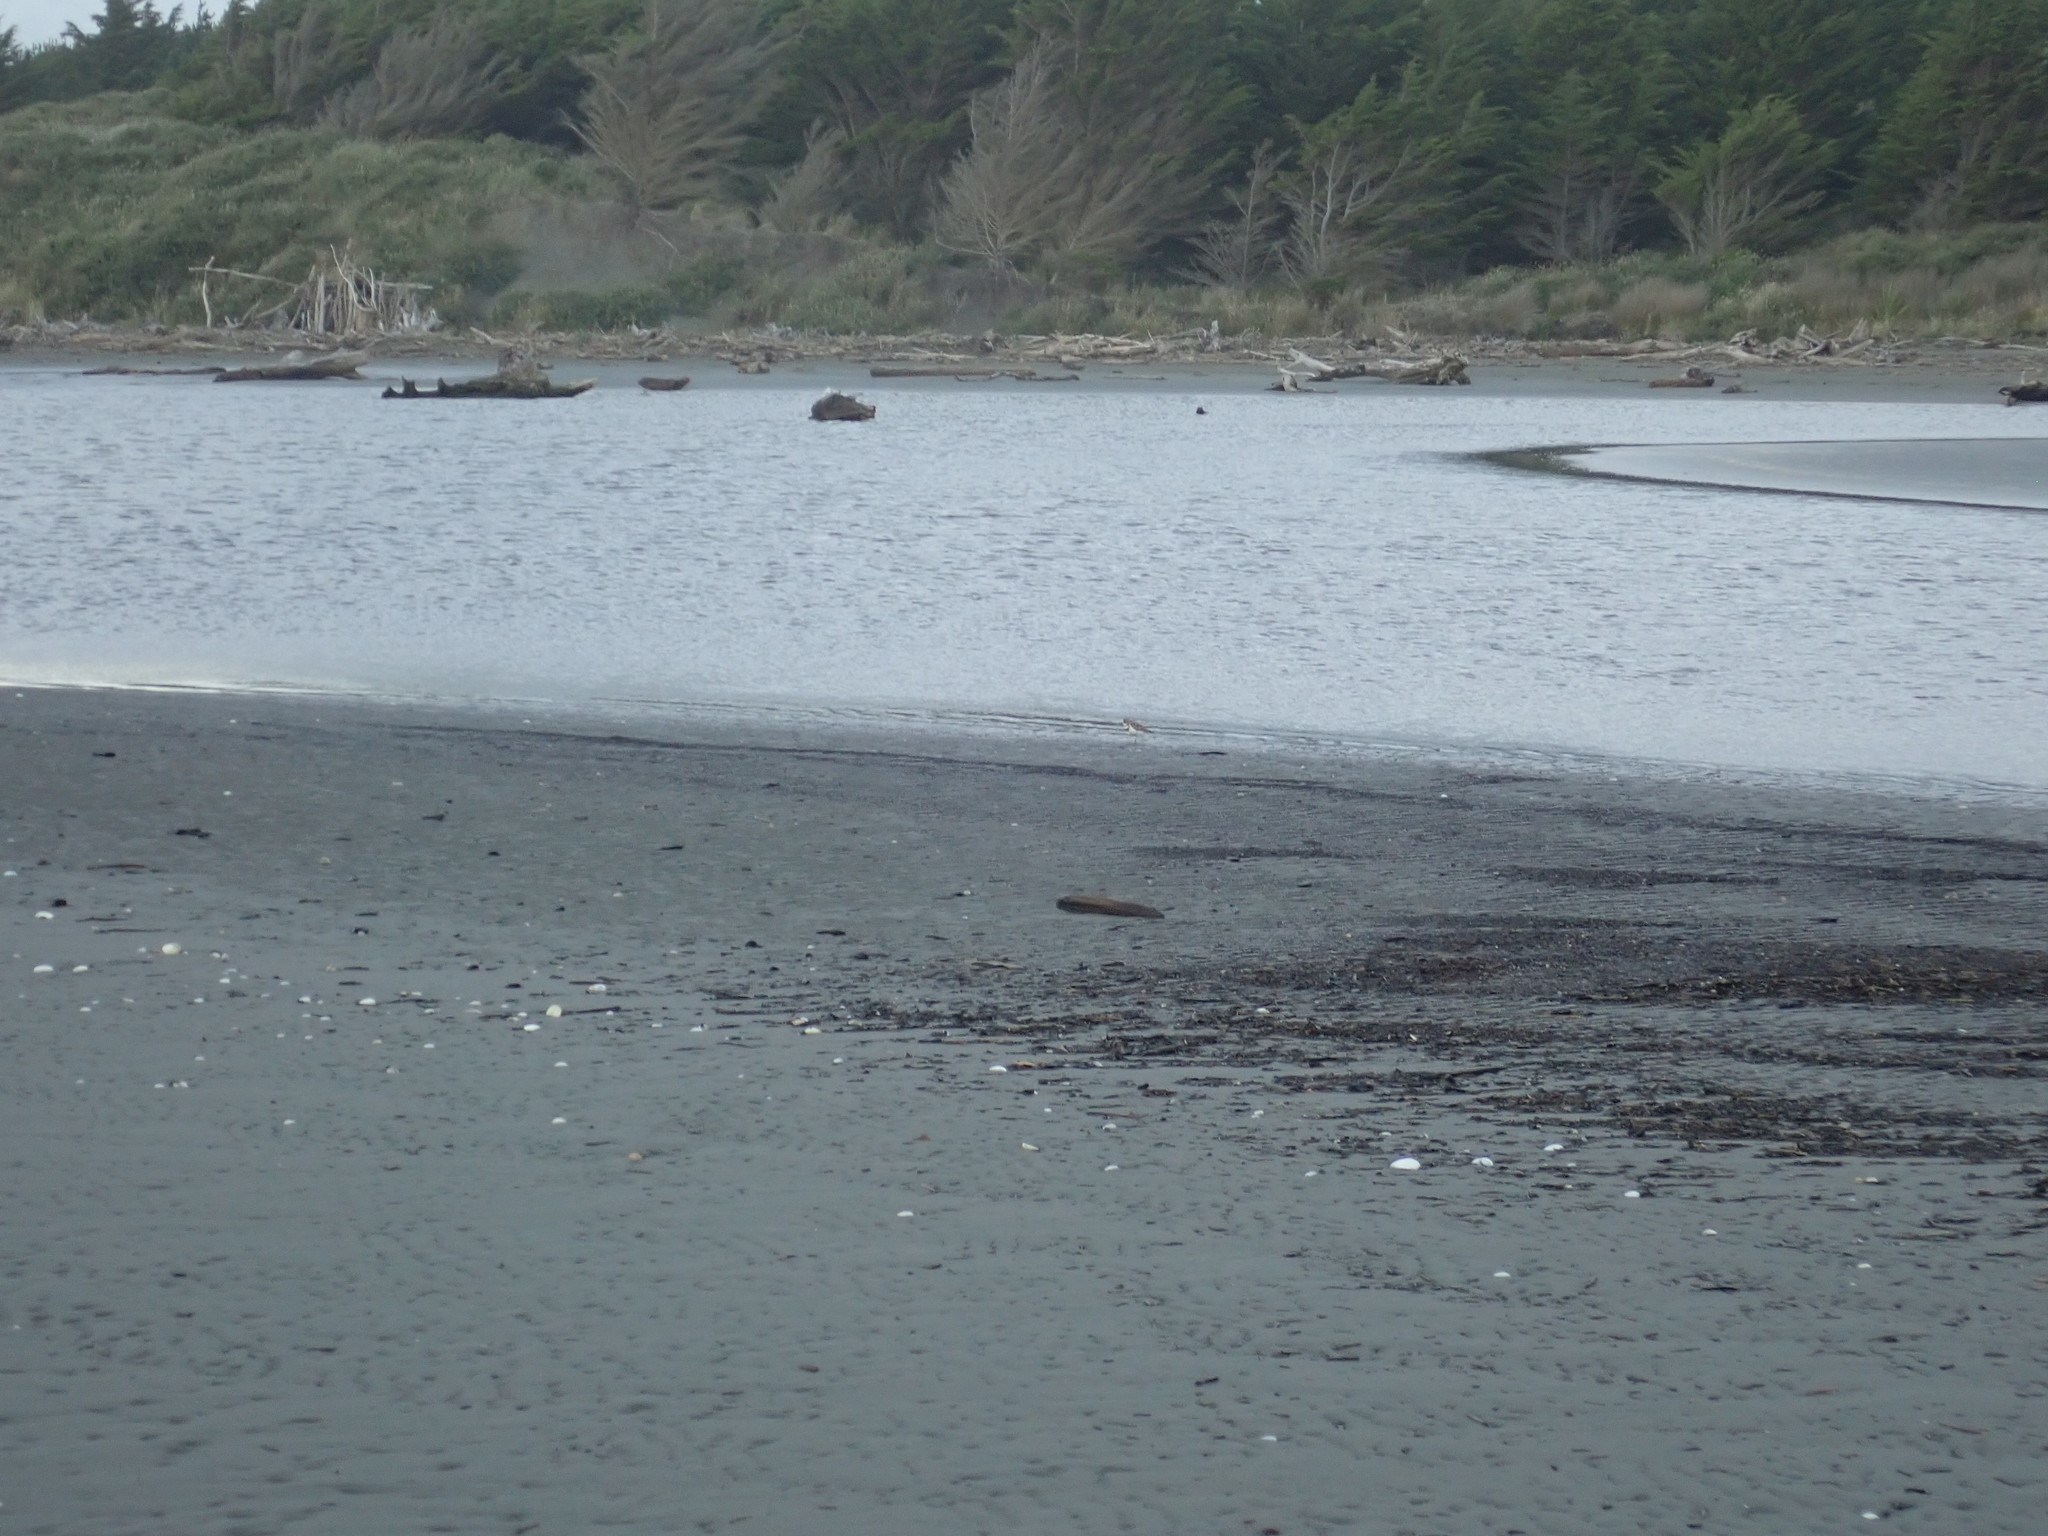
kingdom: Animalia
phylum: Chordata
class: Aves
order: Charadriiformes
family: Charadriidae
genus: Anarhynchus
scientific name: Anarhynchus
